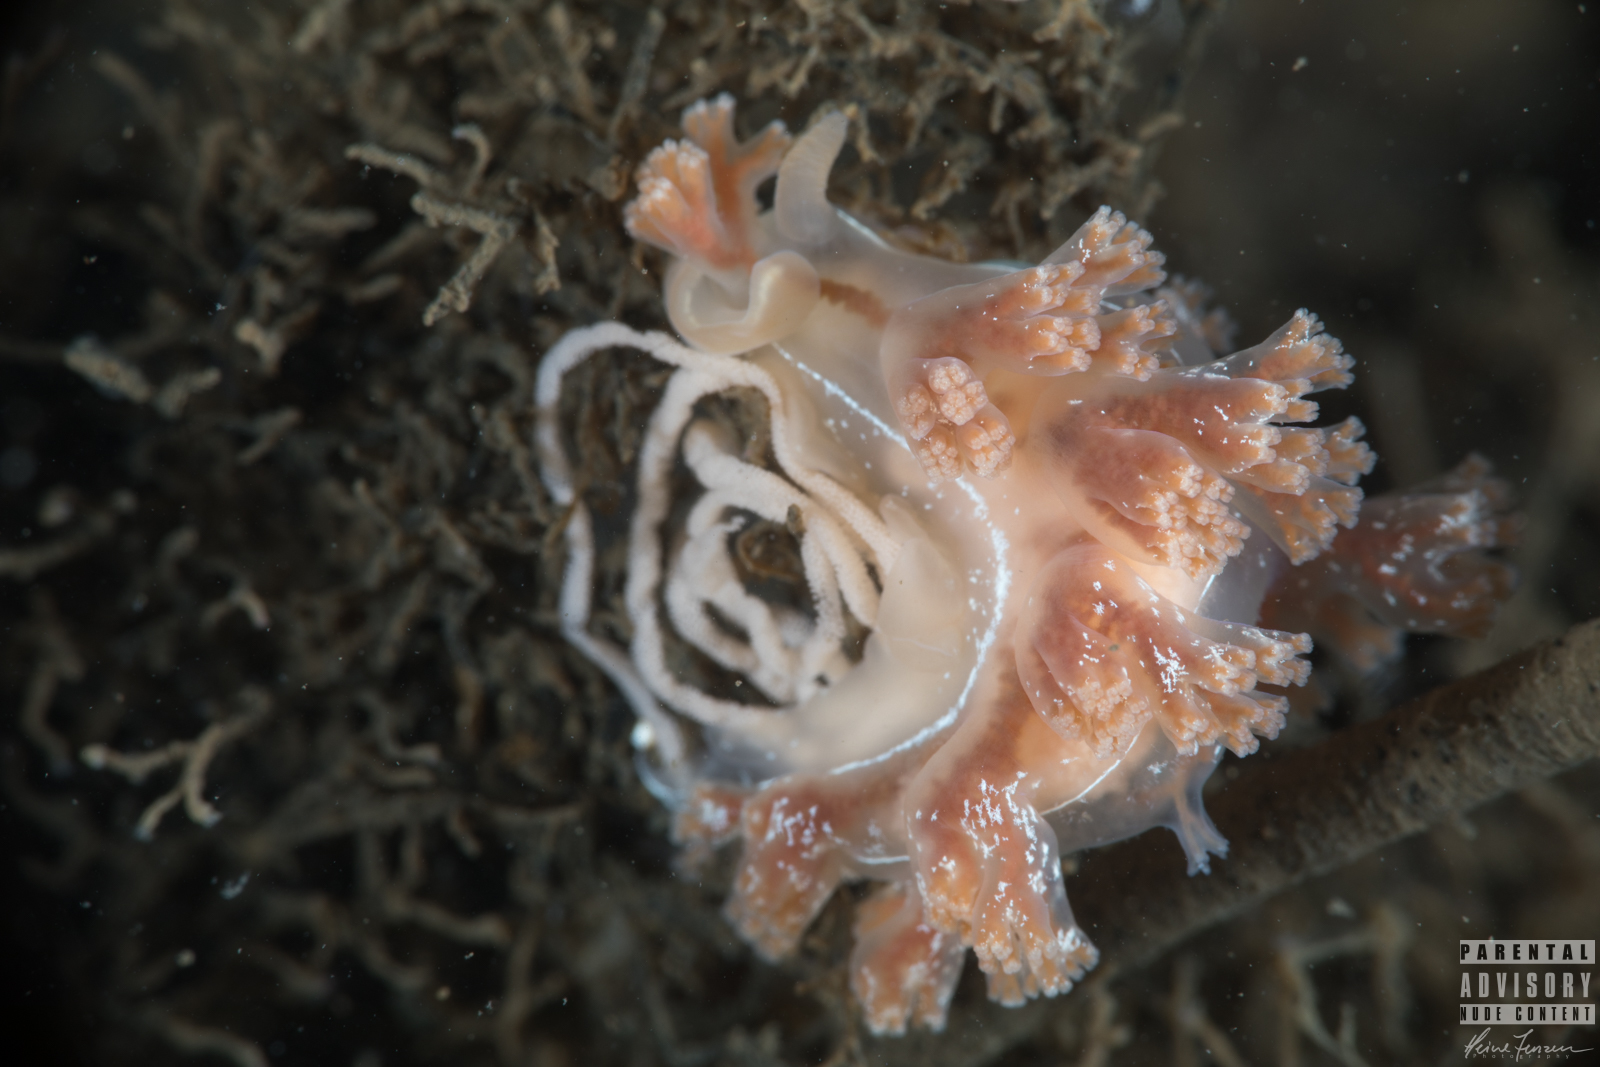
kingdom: Animalia
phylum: Mollusca
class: Gastropoda
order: Nudibranchia
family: Heroidae
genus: Hero
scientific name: Hero formosa
